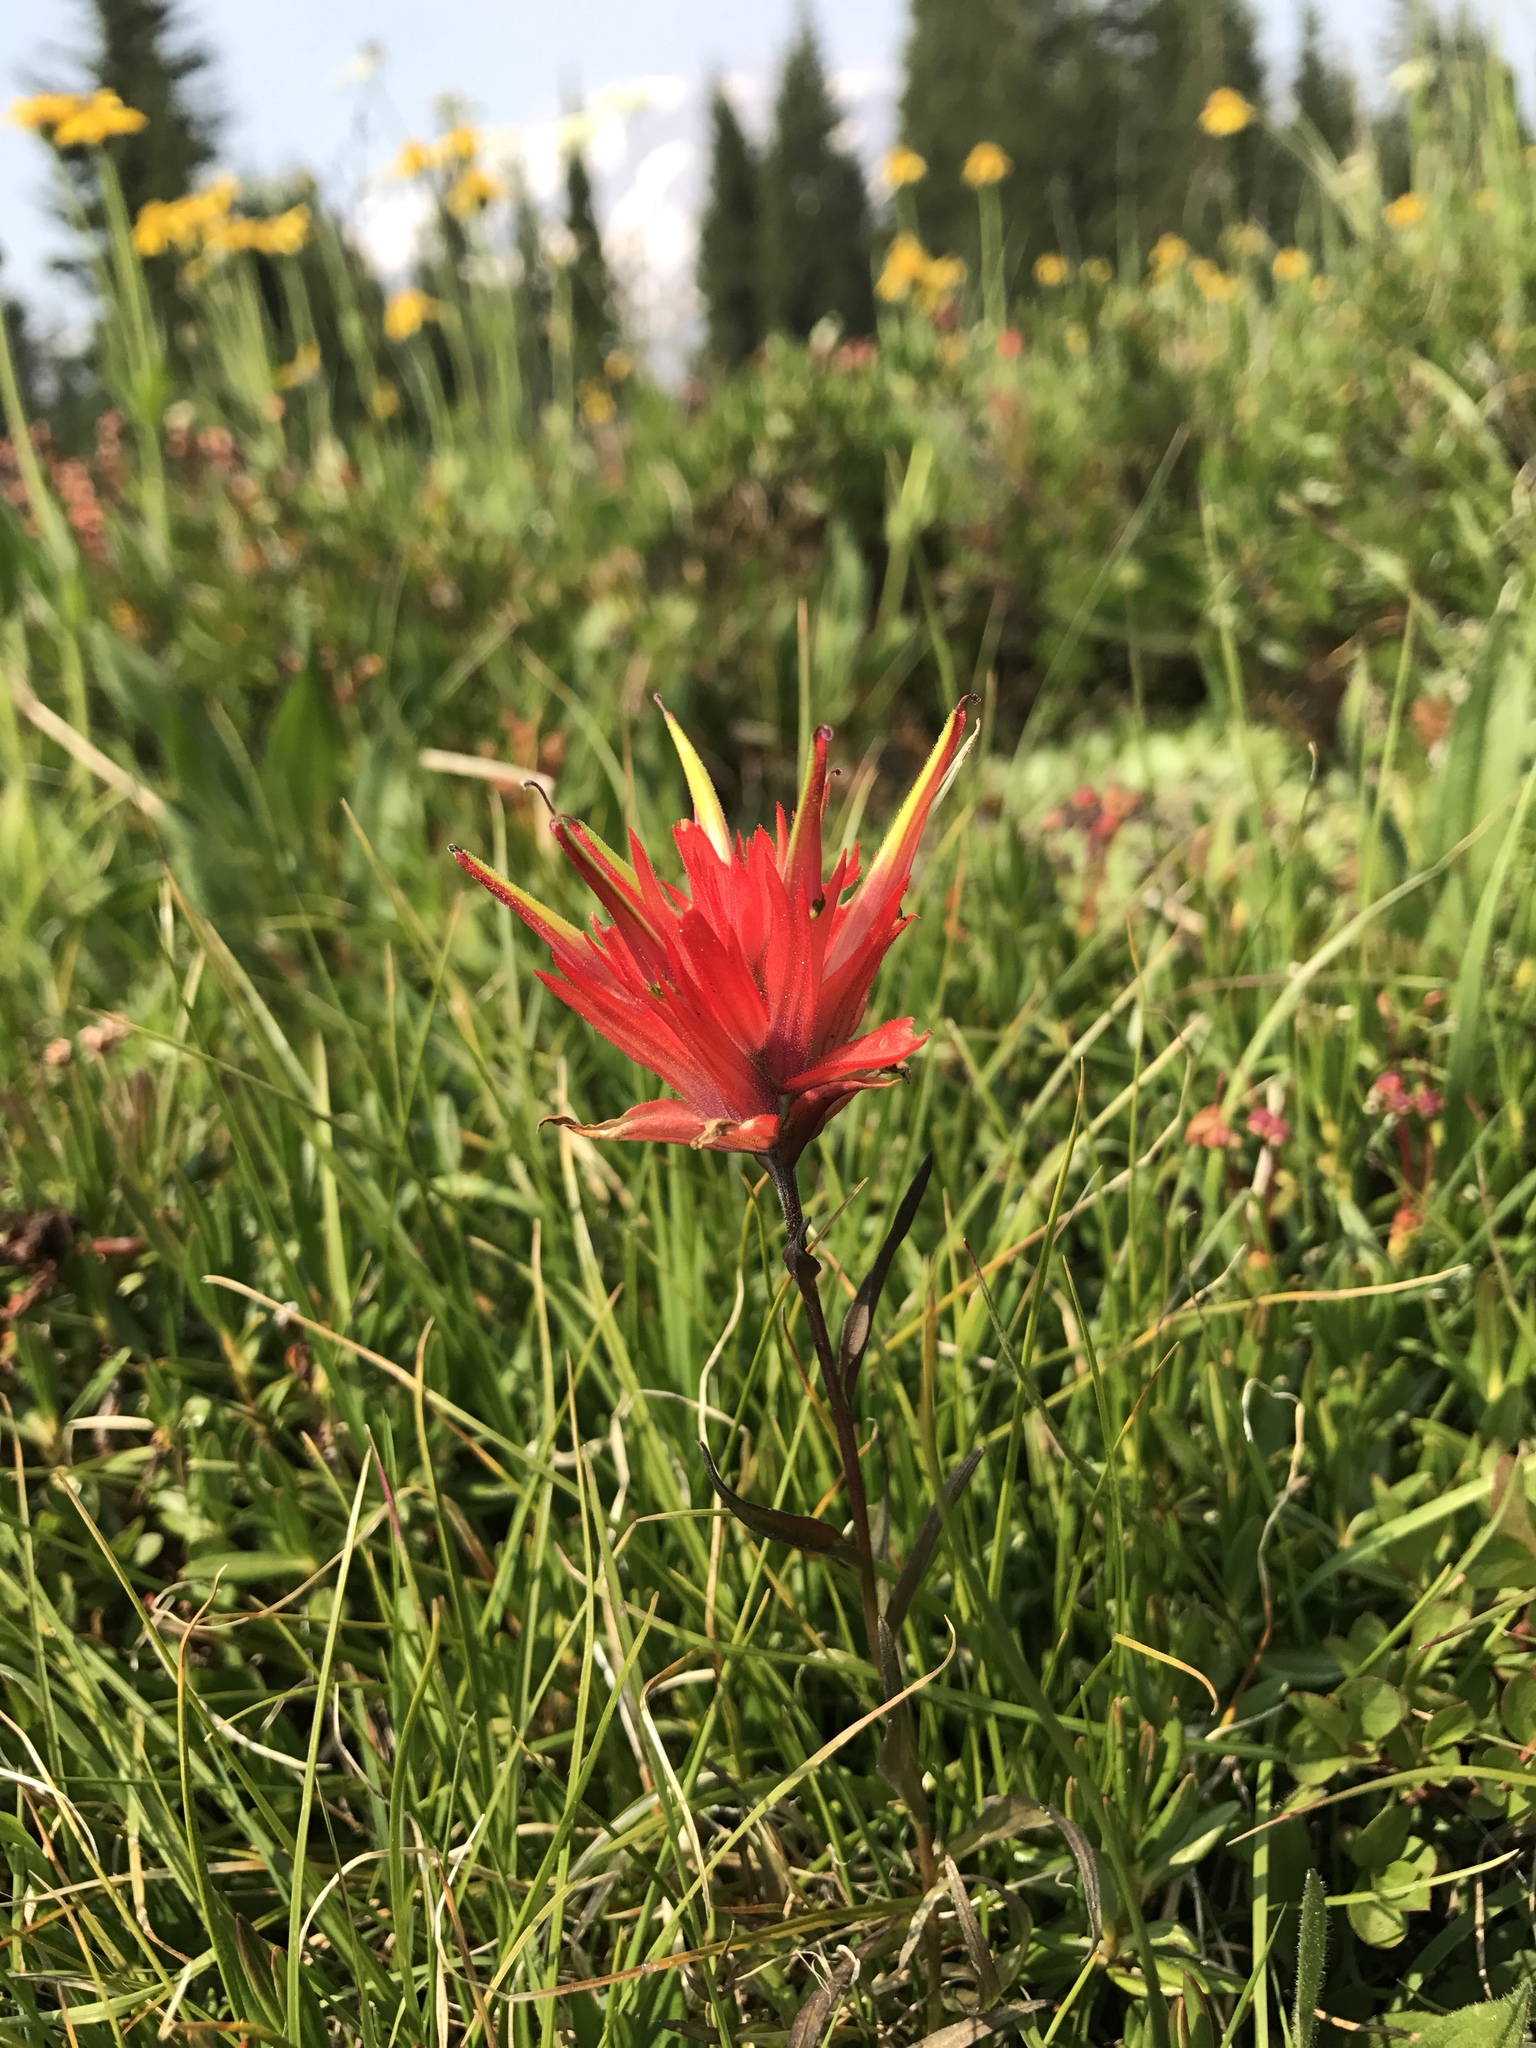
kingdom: Plantae
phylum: Tracheophyta
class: Magnoliopsida
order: Lamiales
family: Orobanchaceae
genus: Castilleja
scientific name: Castilleja miniata
